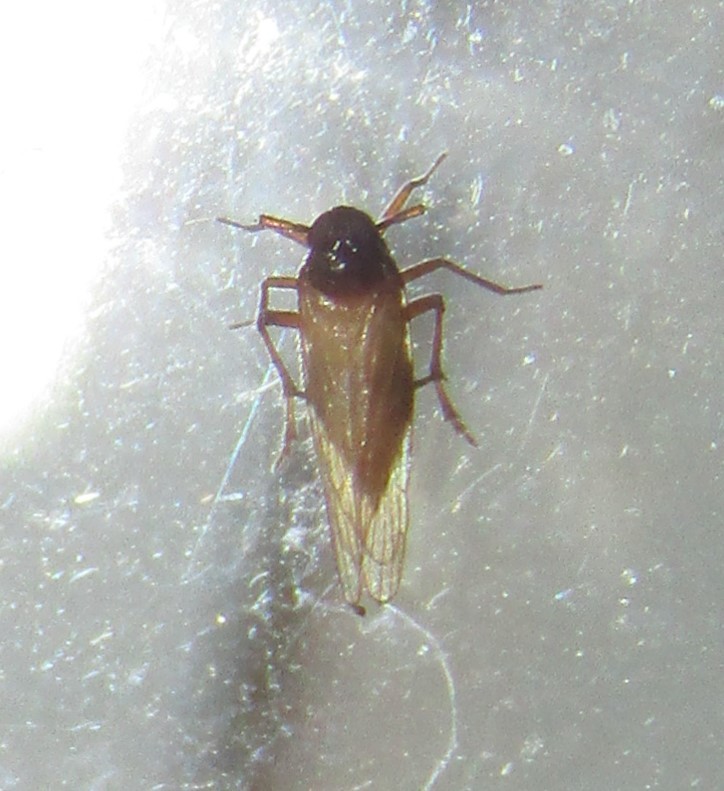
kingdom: Animalia
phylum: Arthropoda
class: Insecta
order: Hemiptera
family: Delphacidae
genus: Penepissonotus
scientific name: Penepissonotus bicolor
